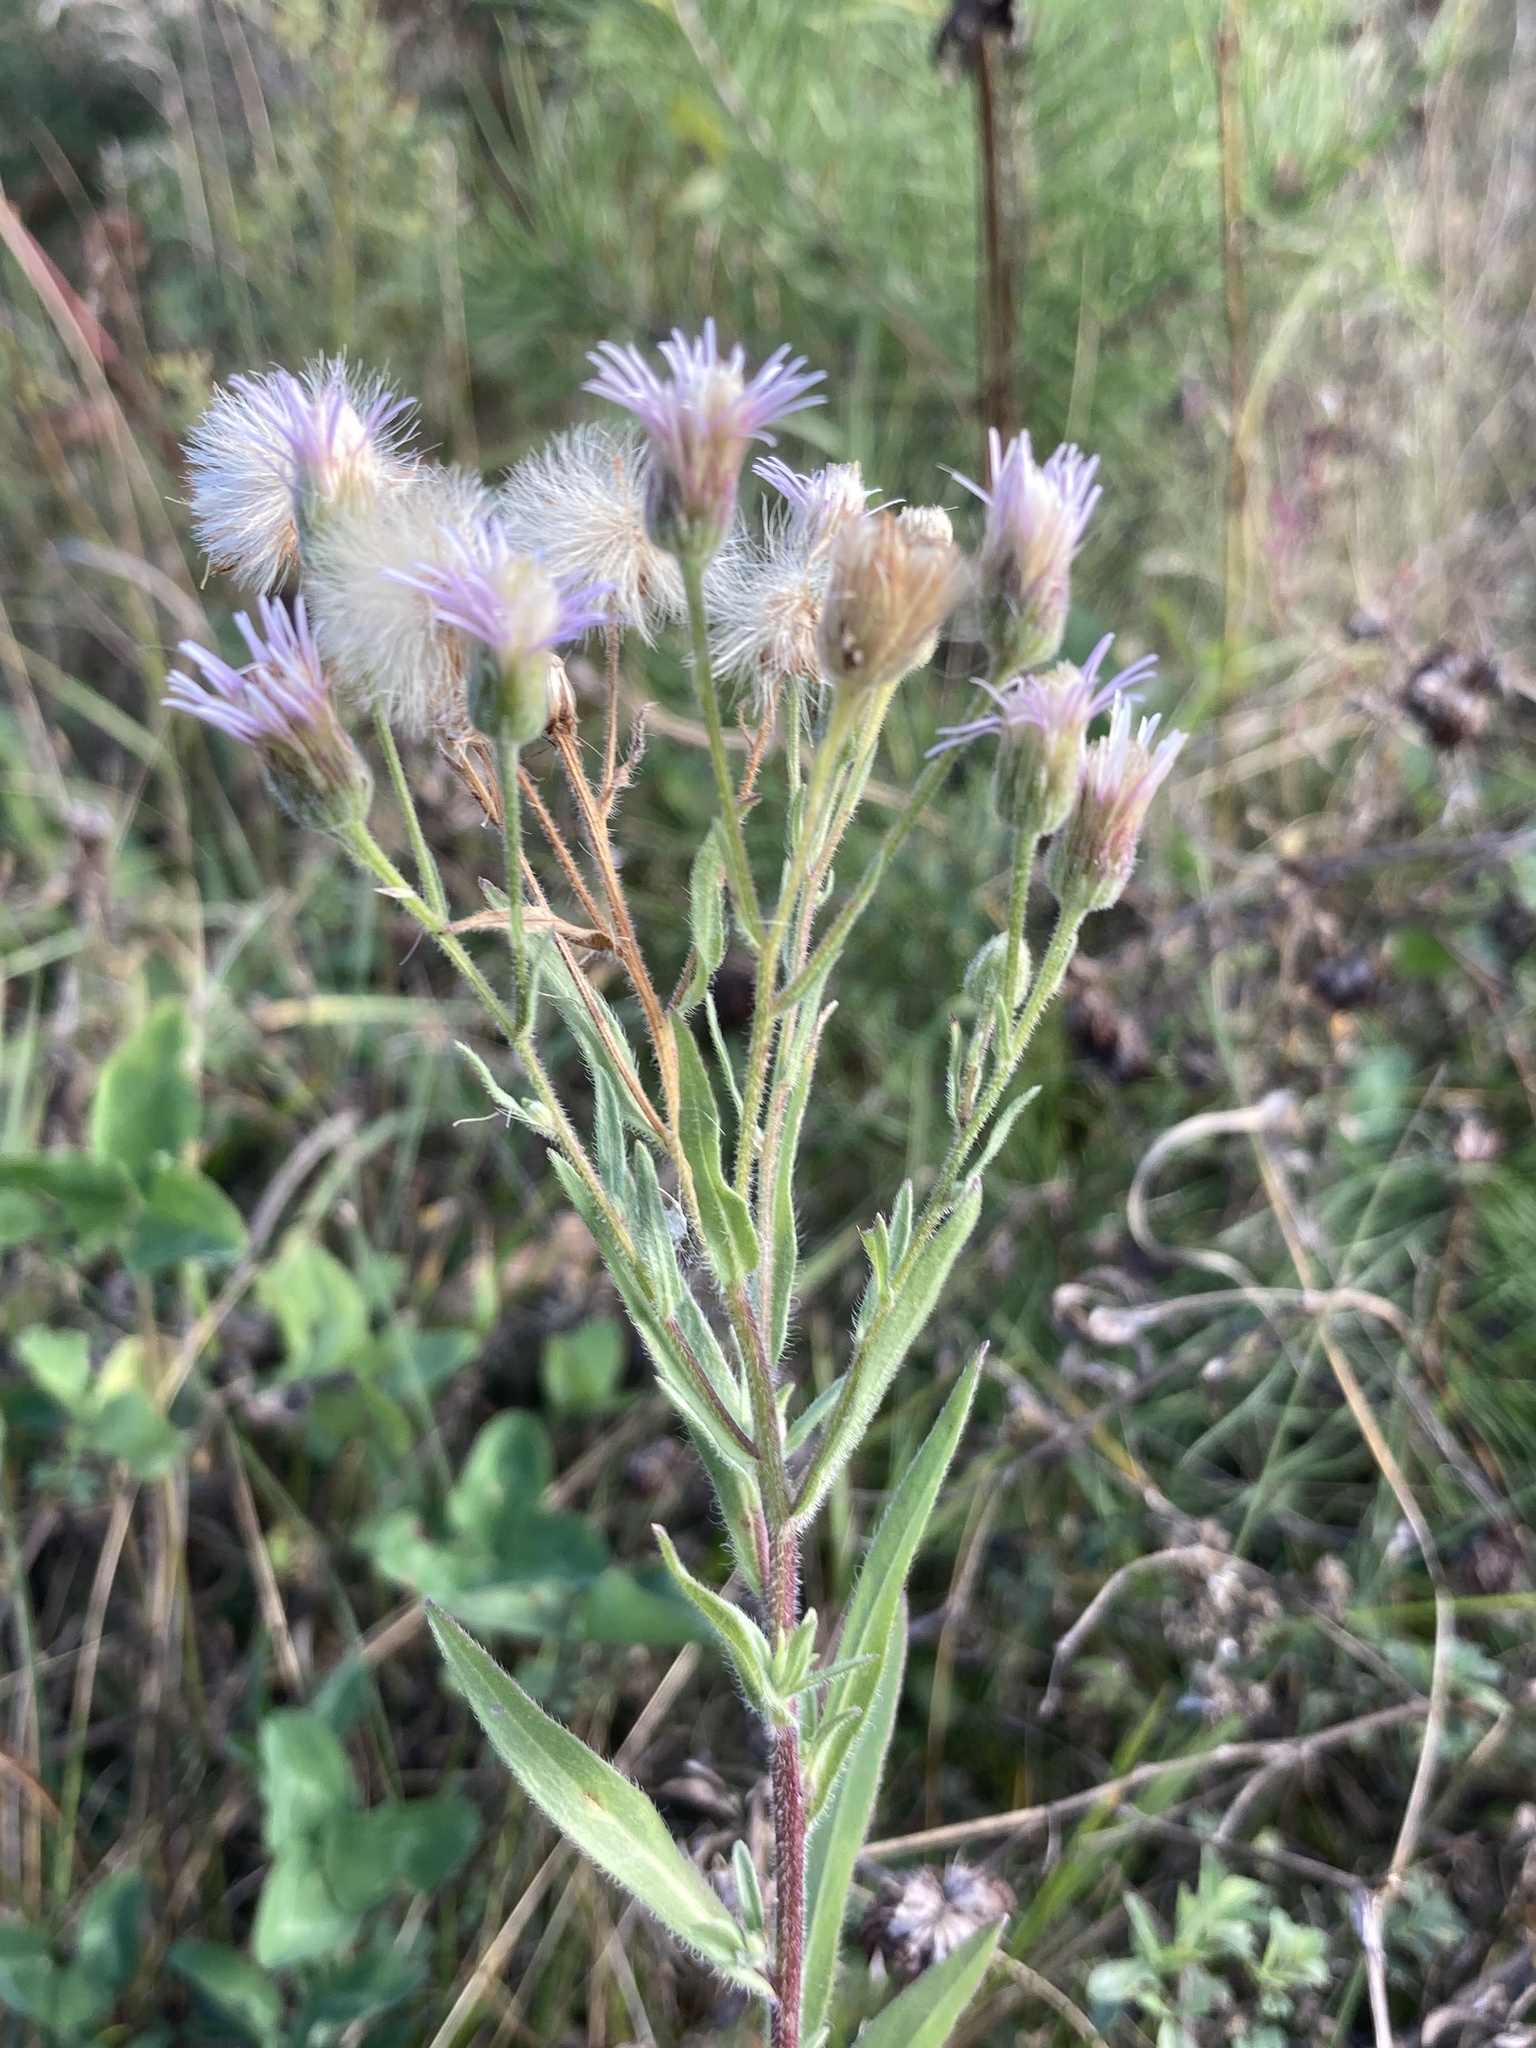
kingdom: Plantae
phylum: Tracheophyta
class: Magnoliopsida
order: Asterales
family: Asteraceae
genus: Erigeron
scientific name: Erigeron acris
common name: Blue fleabane
